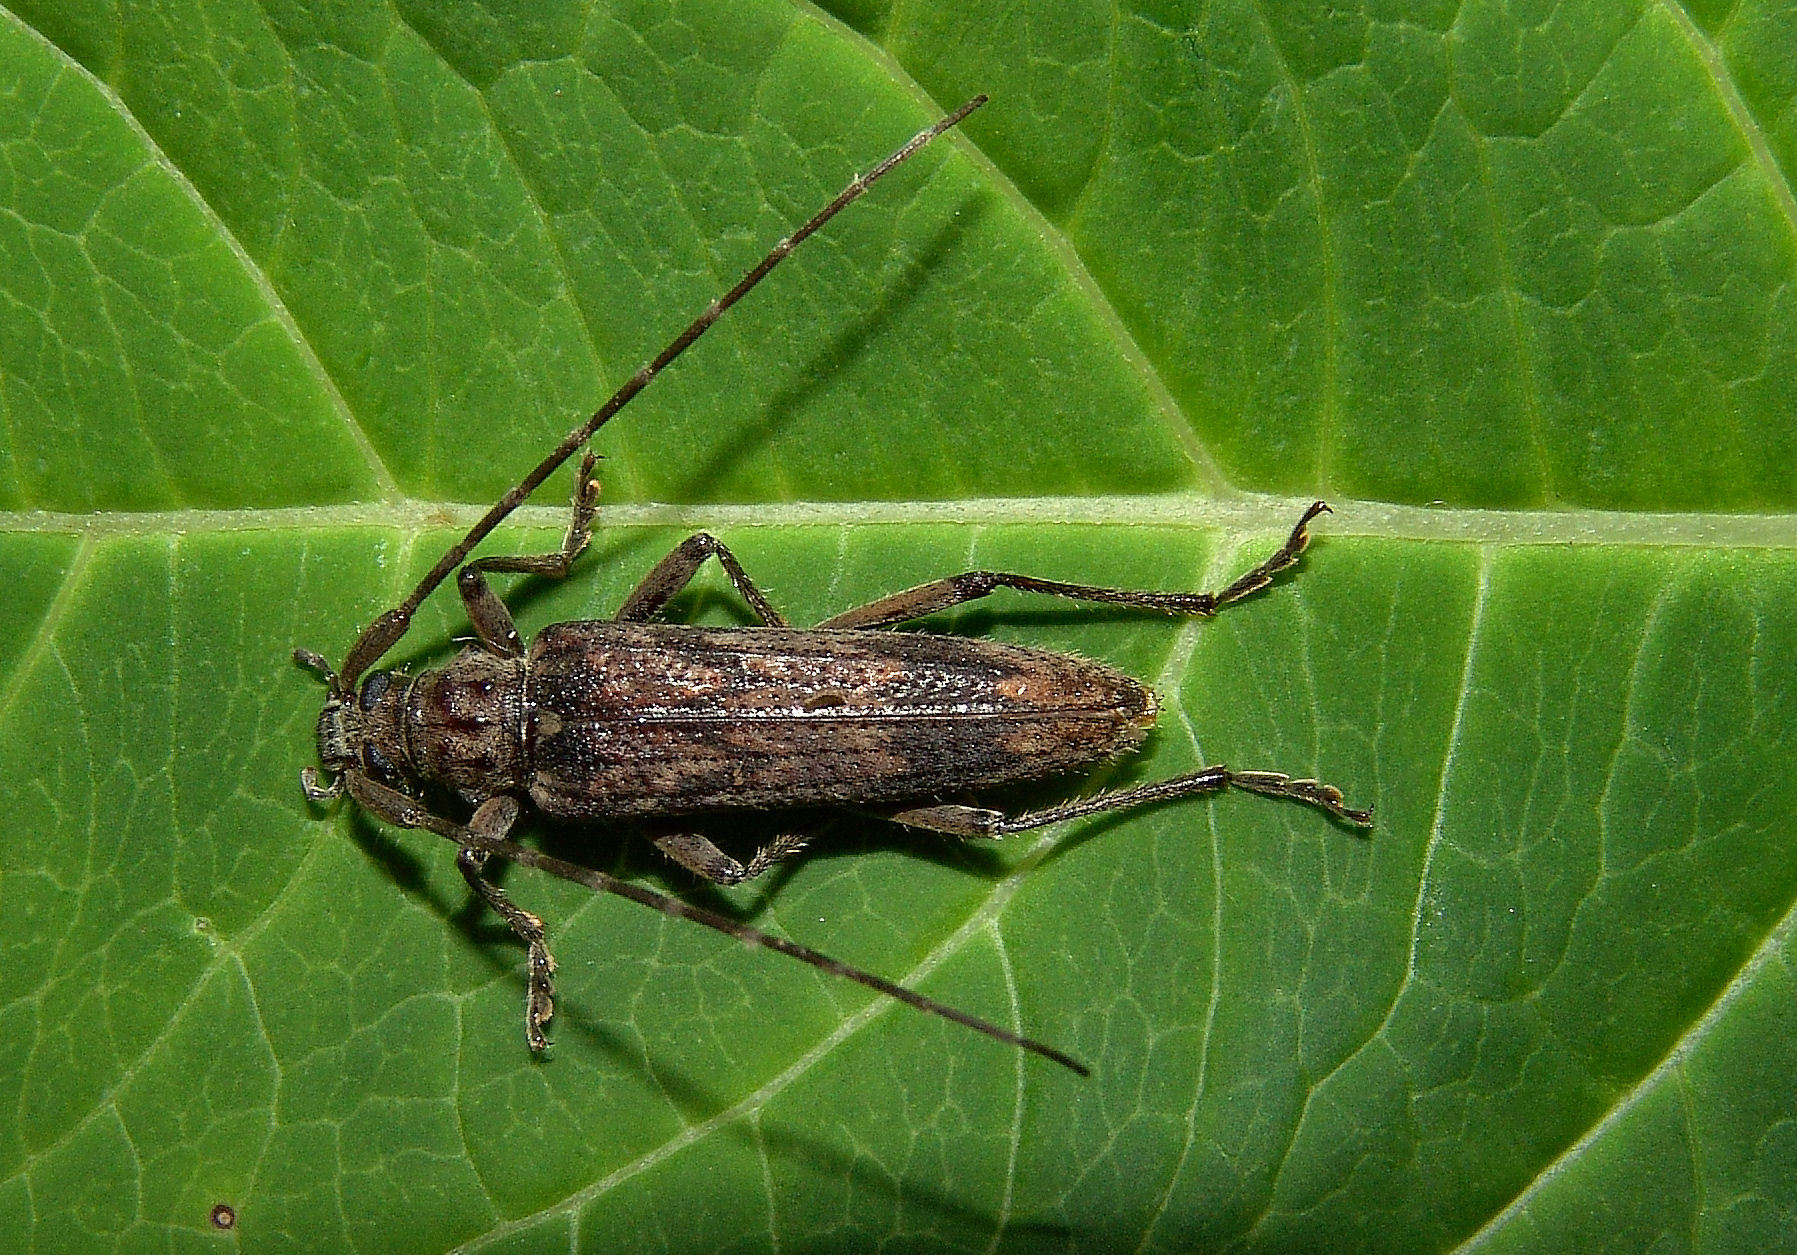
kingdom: Animalia
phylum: Arthropoda
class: Insecta
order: Coleoptera
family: Cerambycidae
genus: Elytrimitatrix
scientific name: Elytrimitatrix undata
